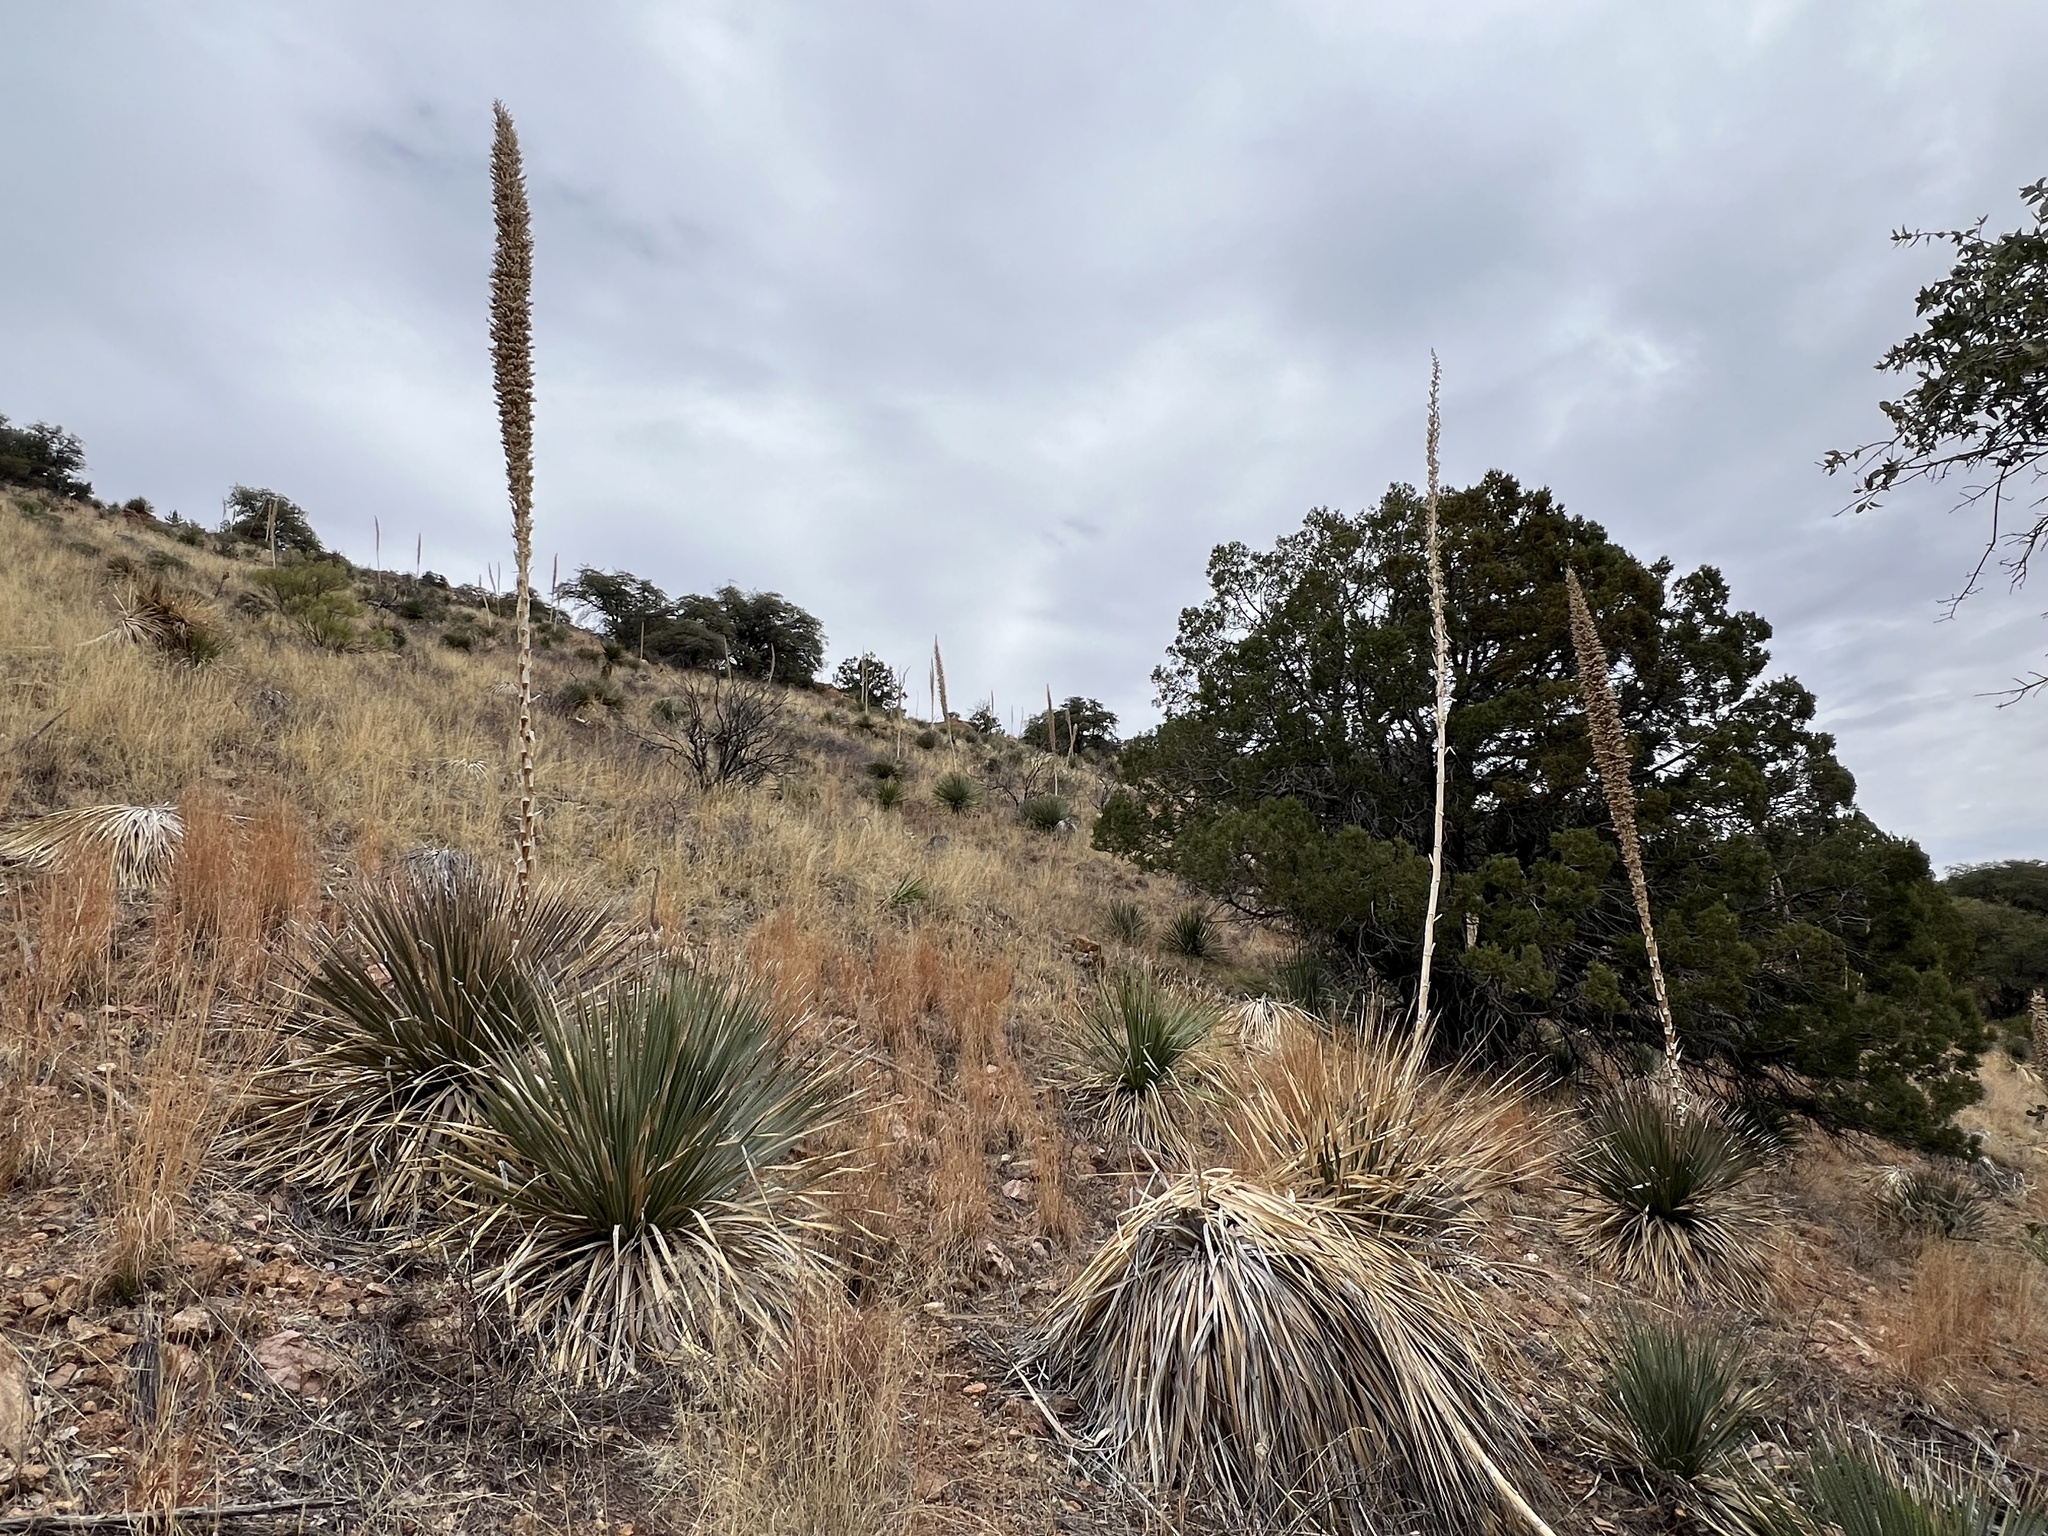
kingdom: Plantae
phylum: Tracheophyta
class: Liliopsida
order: Asparagales
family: Asparagaceae
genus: Dasylirion
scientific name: Dasylirion wheeleri
